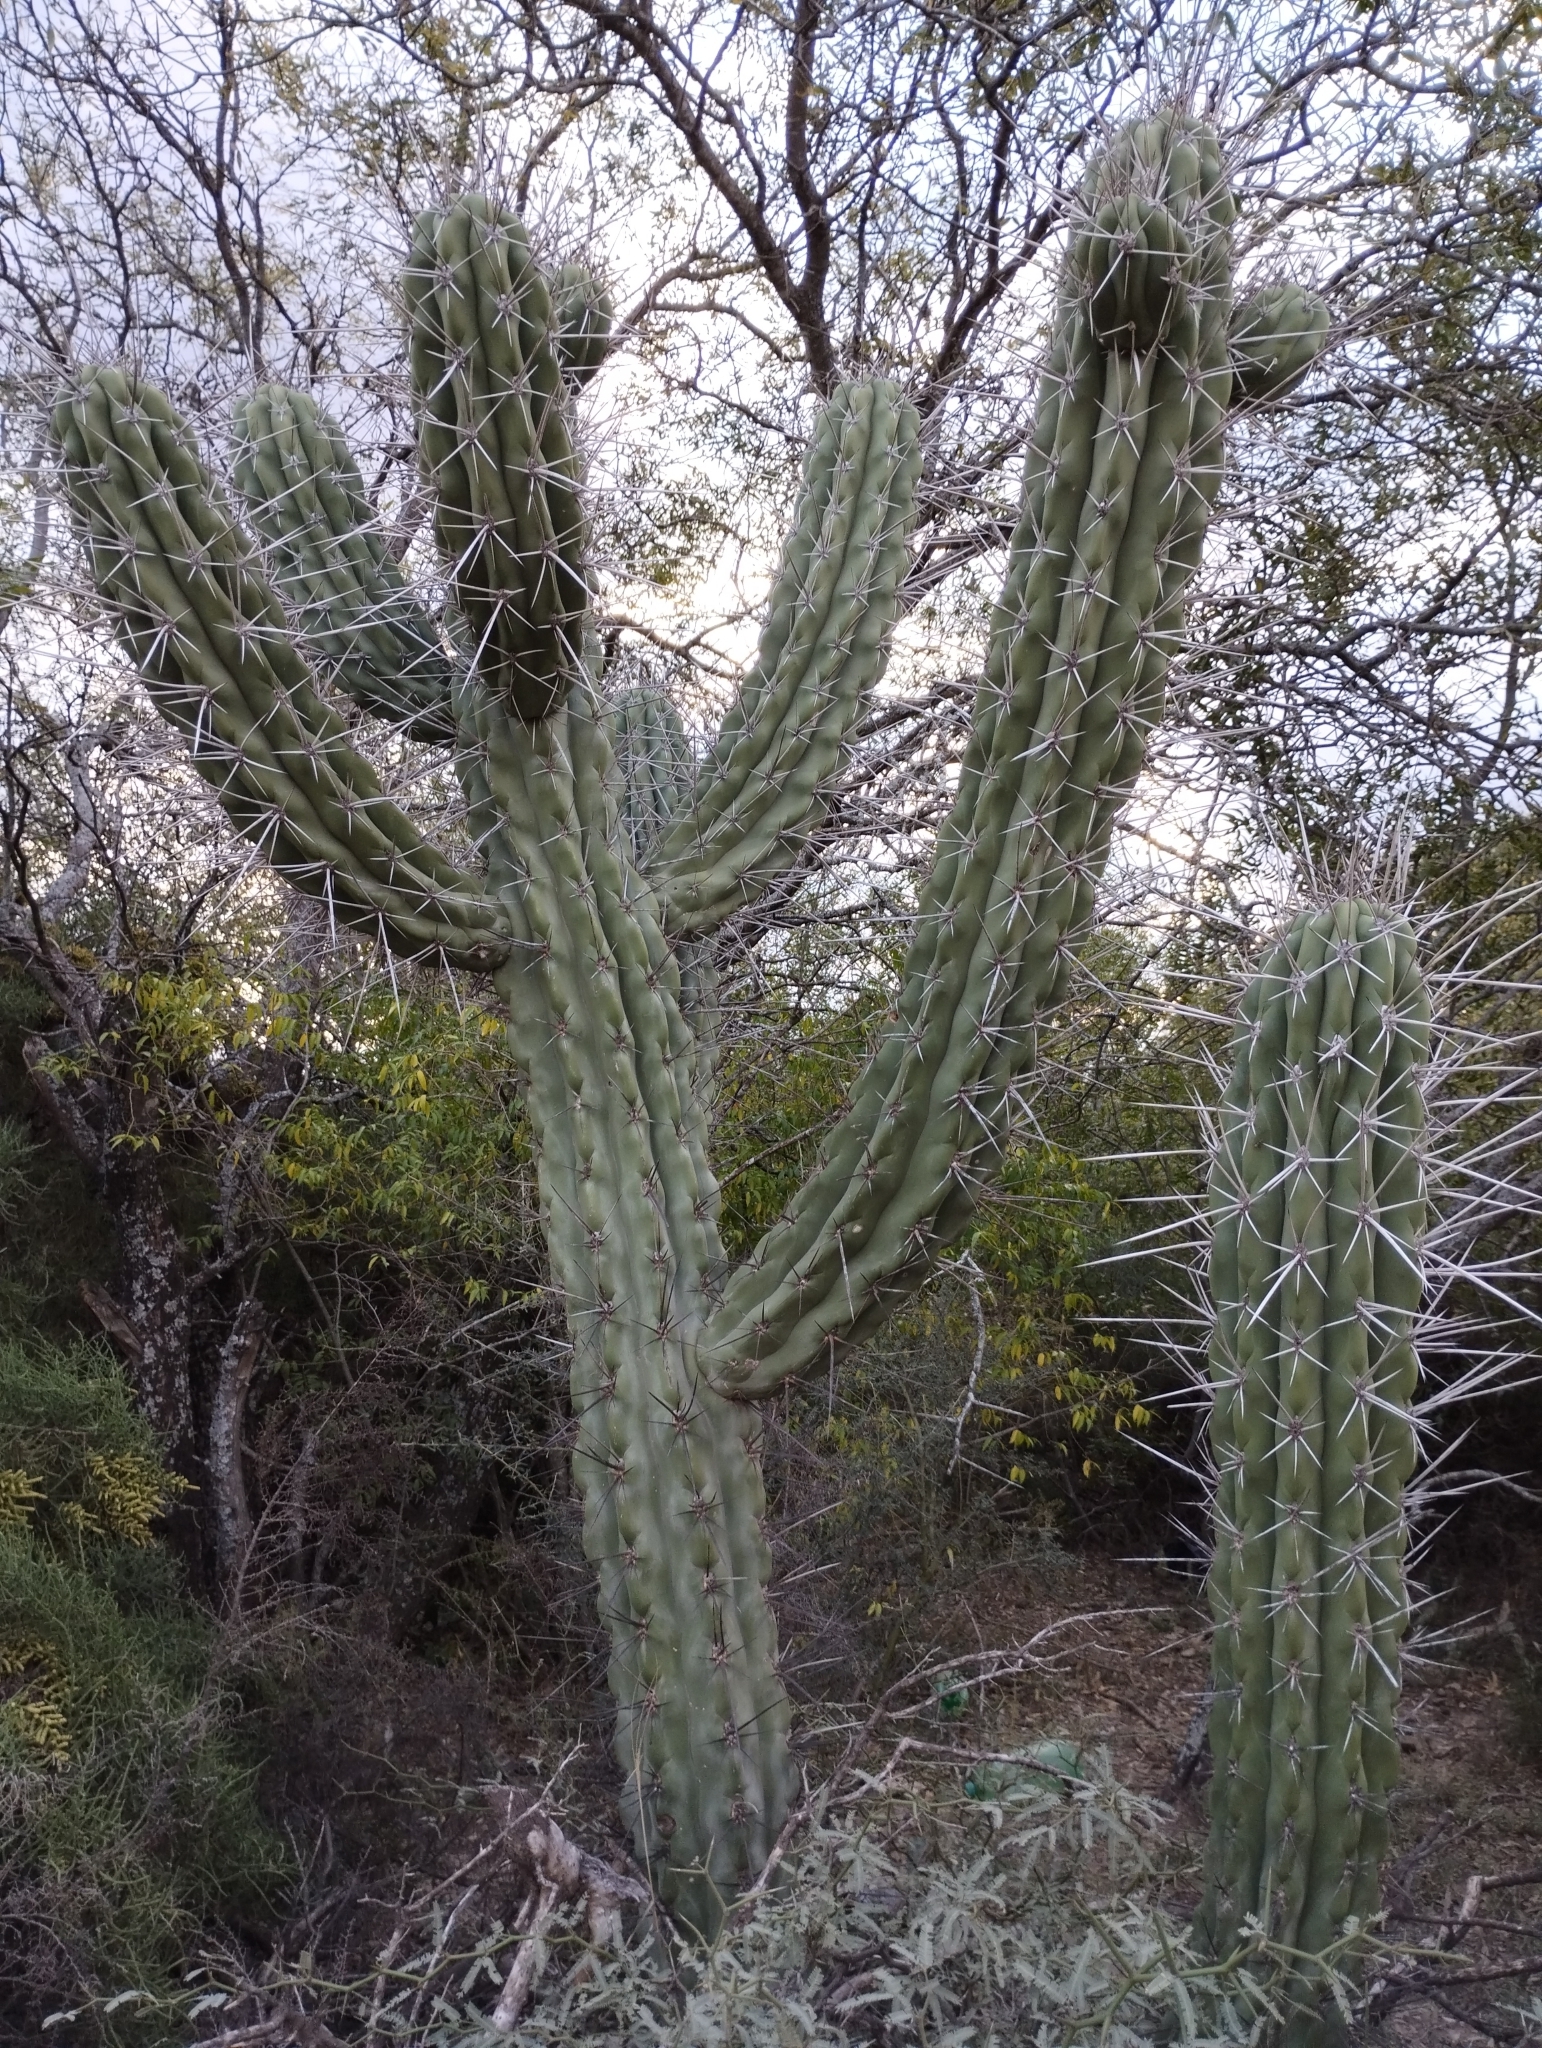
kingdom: Plantae
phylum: Tracheophyta
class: Magnoliopsida
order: Caryophyllales
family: Cactaceae
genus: Stetsonia
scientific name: Stetsonia coryne
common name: Toothpick cactus
